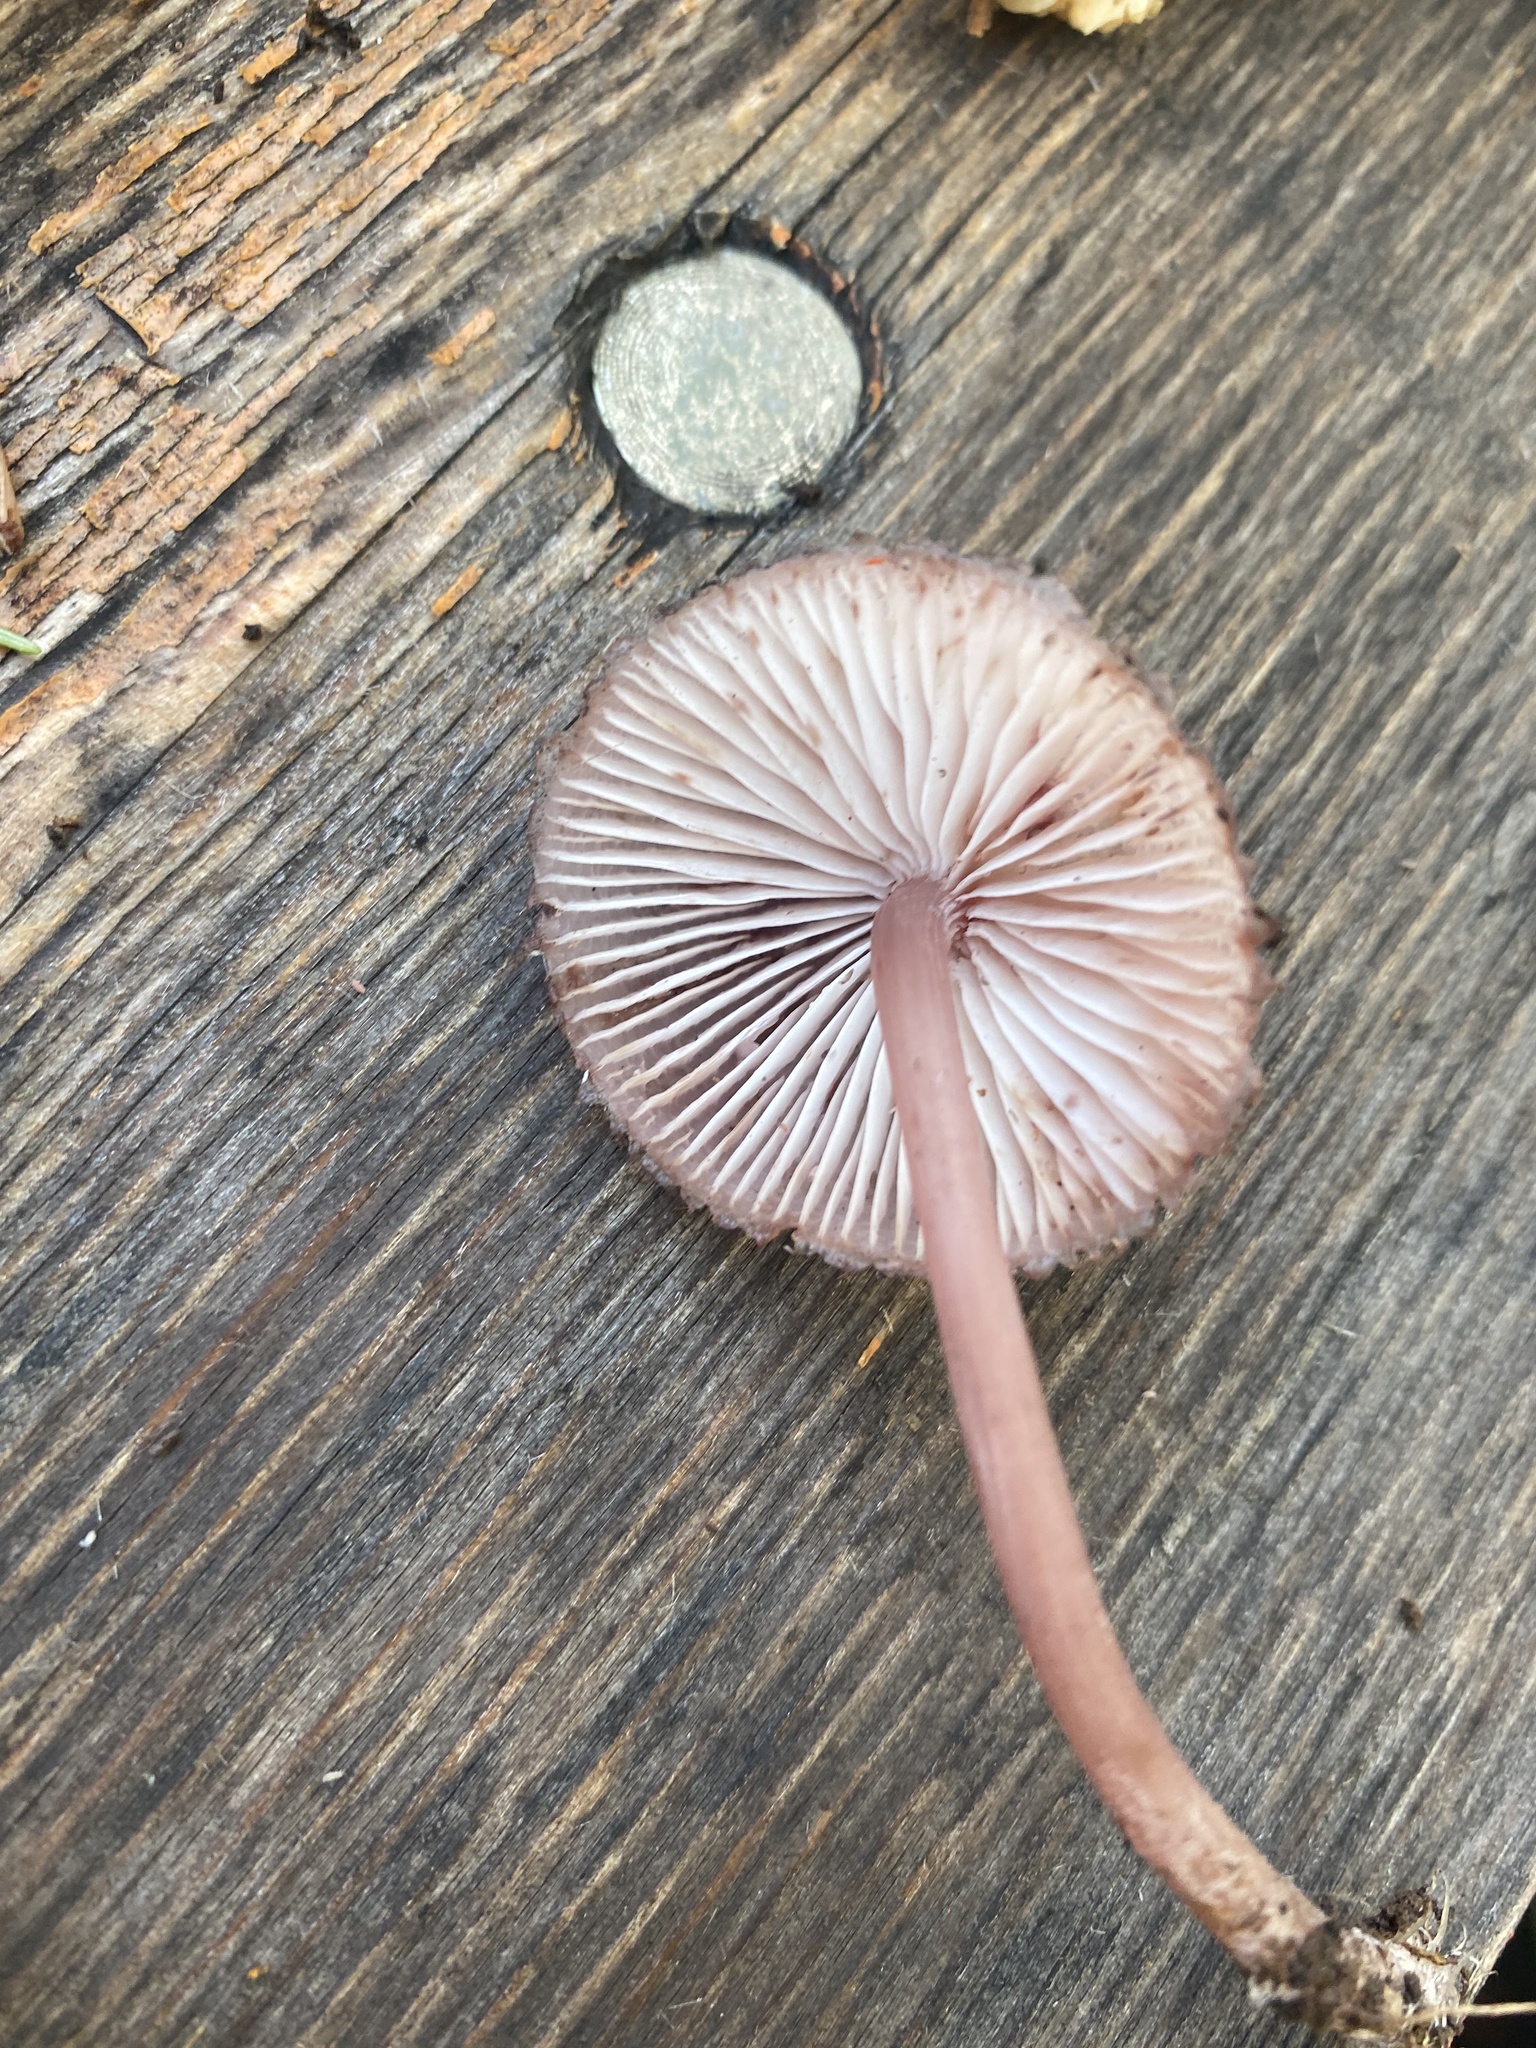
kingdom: Fungi
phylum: Basidiomycota
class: Agaricomycetes
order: Agaricales
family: Mycenaceae
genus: Mycena
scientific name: Mycena haematopus
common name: Burgundydrop bonnet
